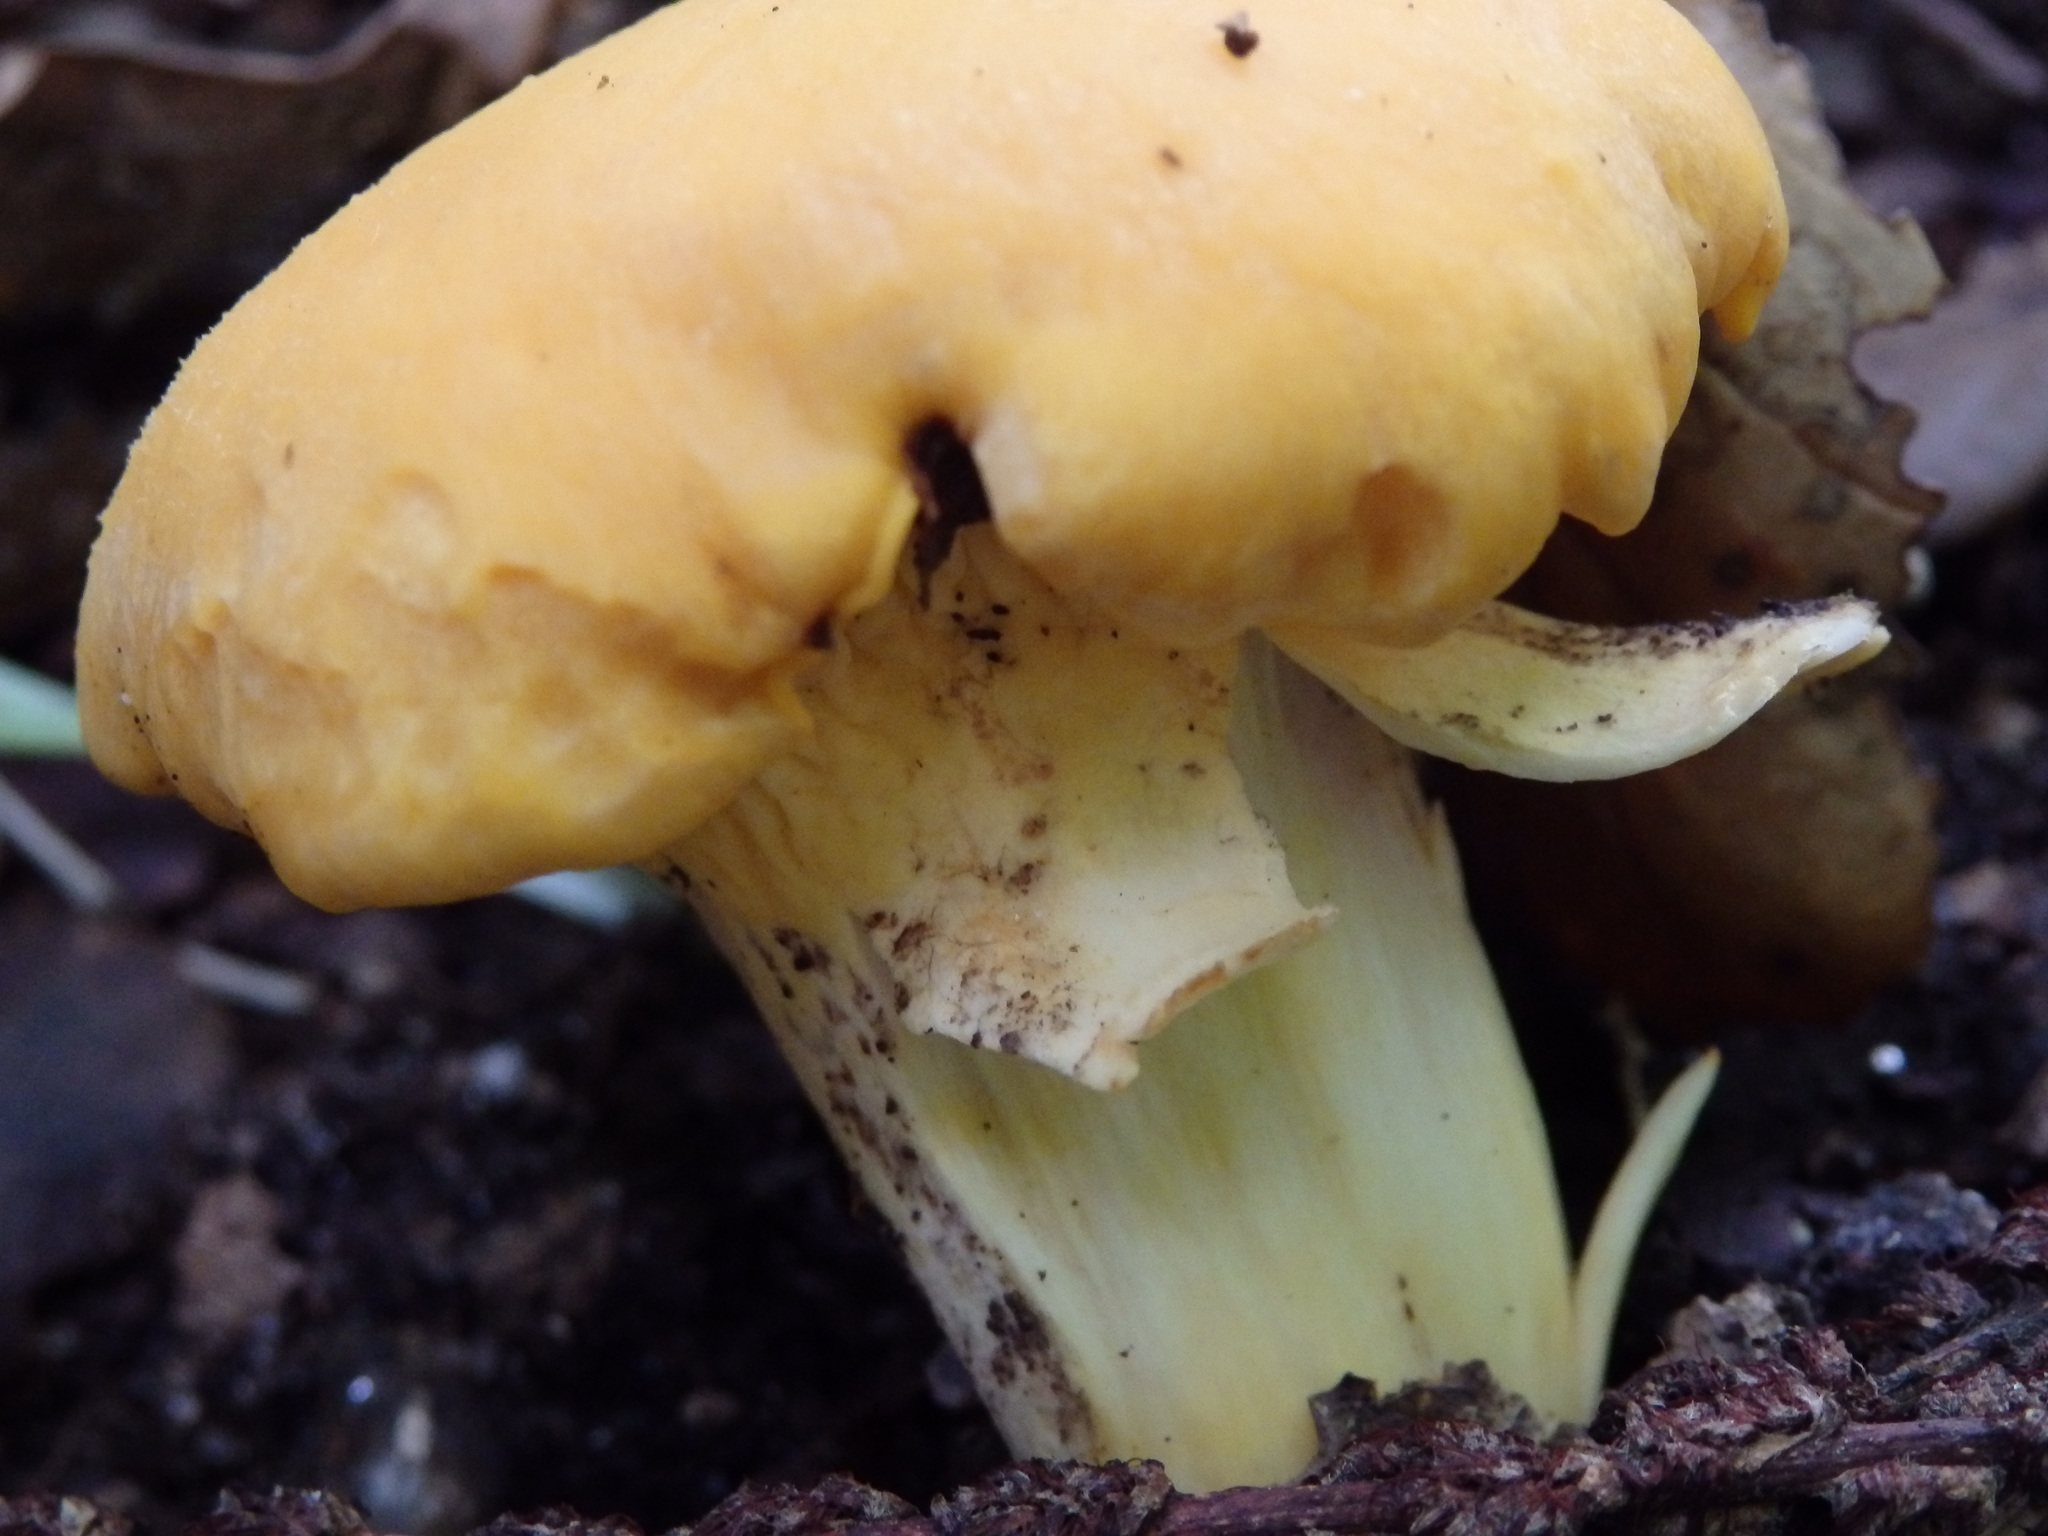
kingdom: Fungi
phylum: Basidiomycota
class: Agaricomycetes
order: Cantharellales
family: Hydnaceae
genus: Cantharellus
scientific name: Cantharellus cibarius
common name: Chanterelle
